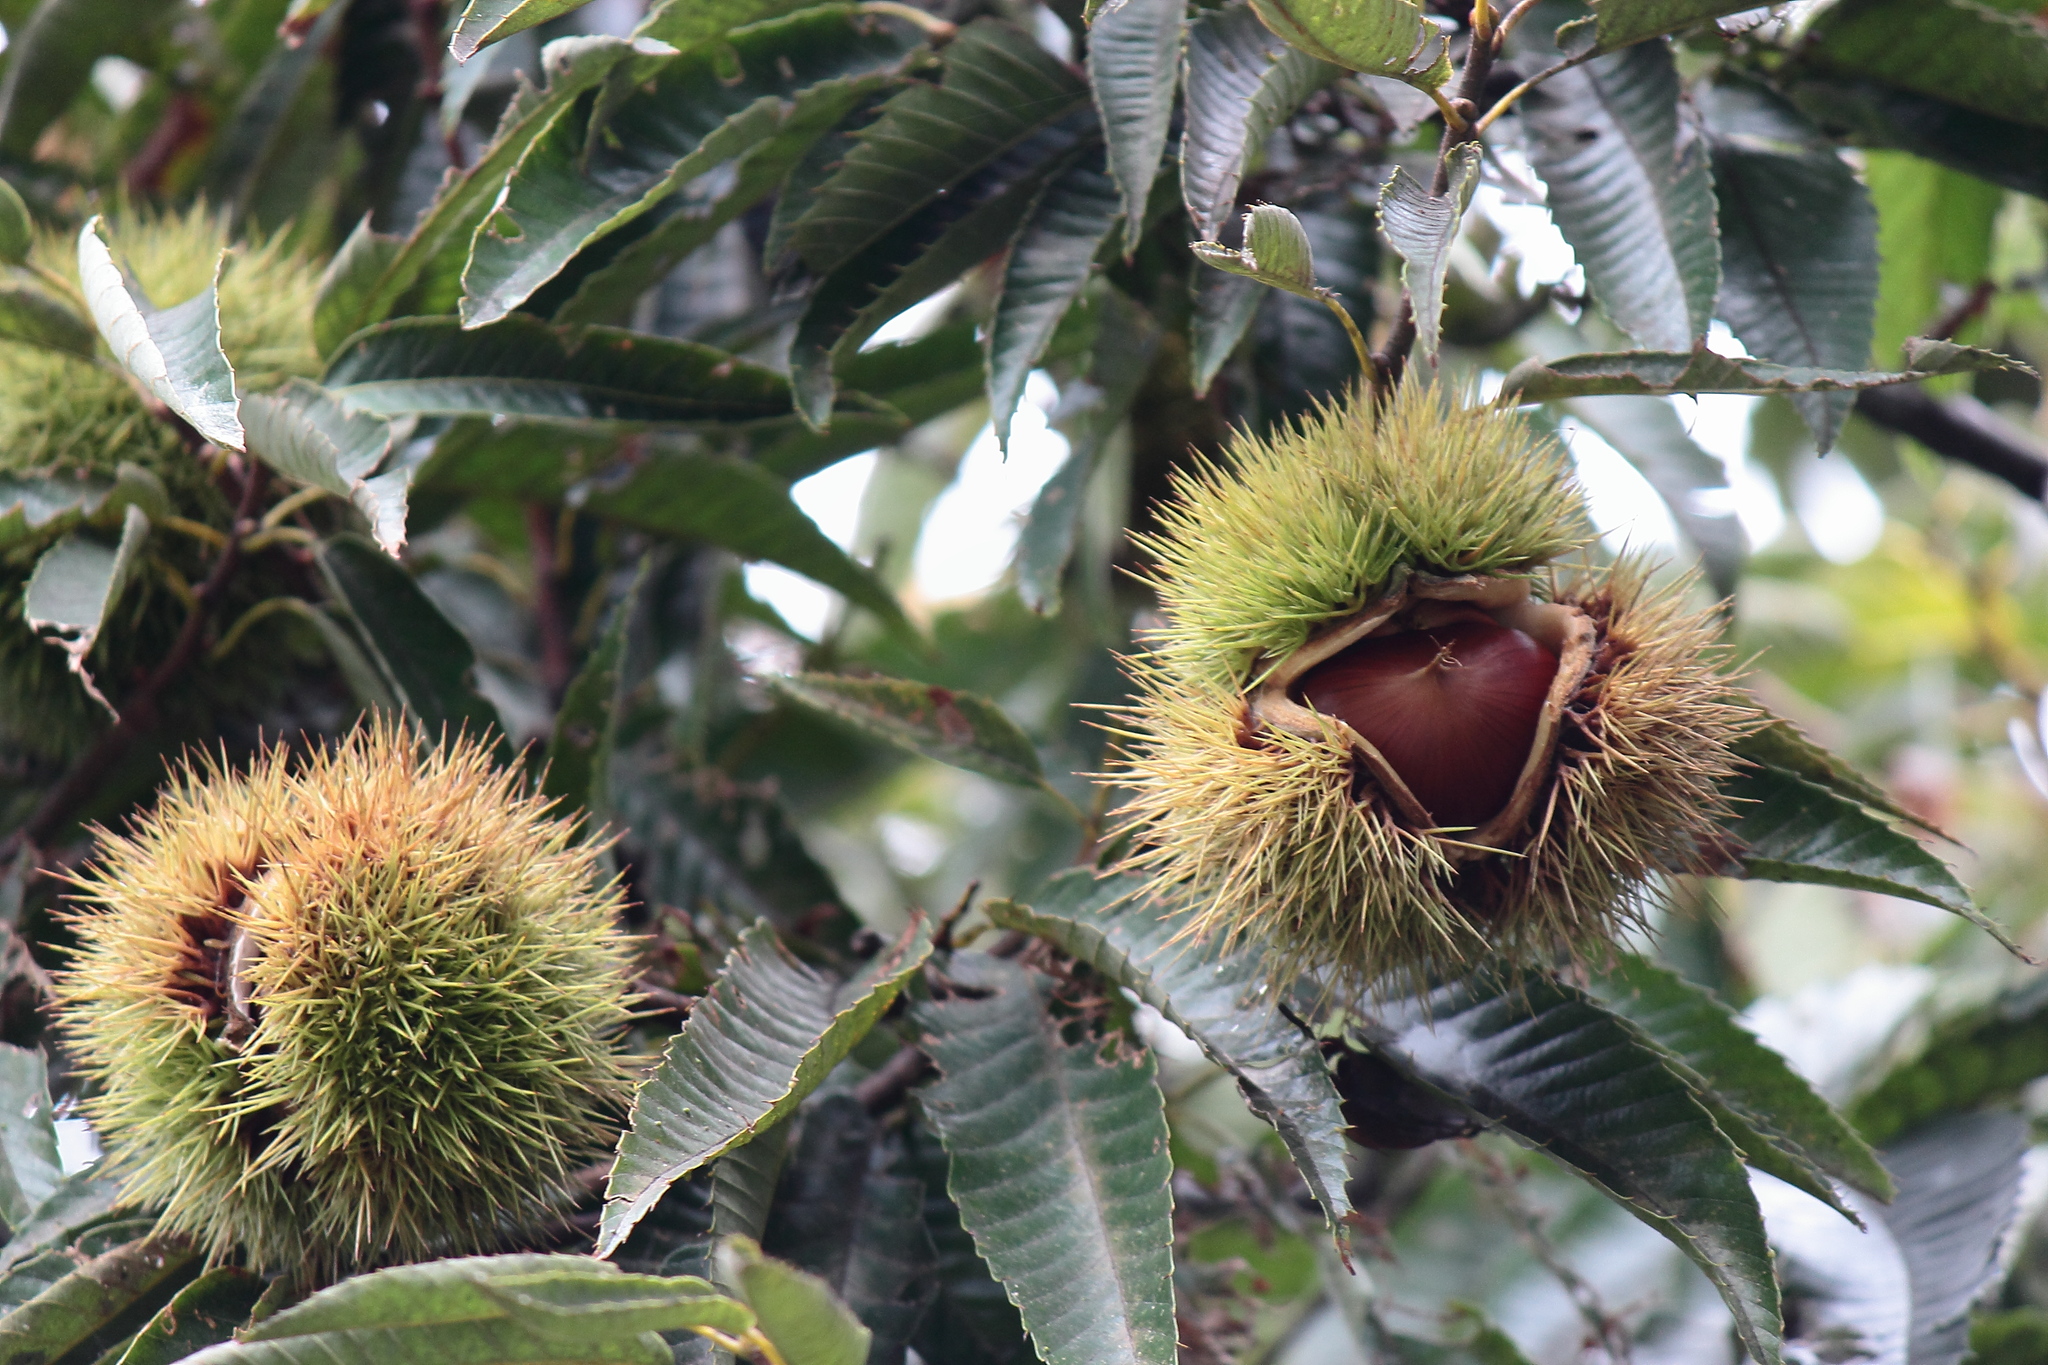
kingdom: Plantae
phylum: Tracheophyta
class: Magnoliopsida
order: Fagales
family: Fagaceae
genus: Castanea
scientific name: Castanea crenata
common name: Japanese chestnut
